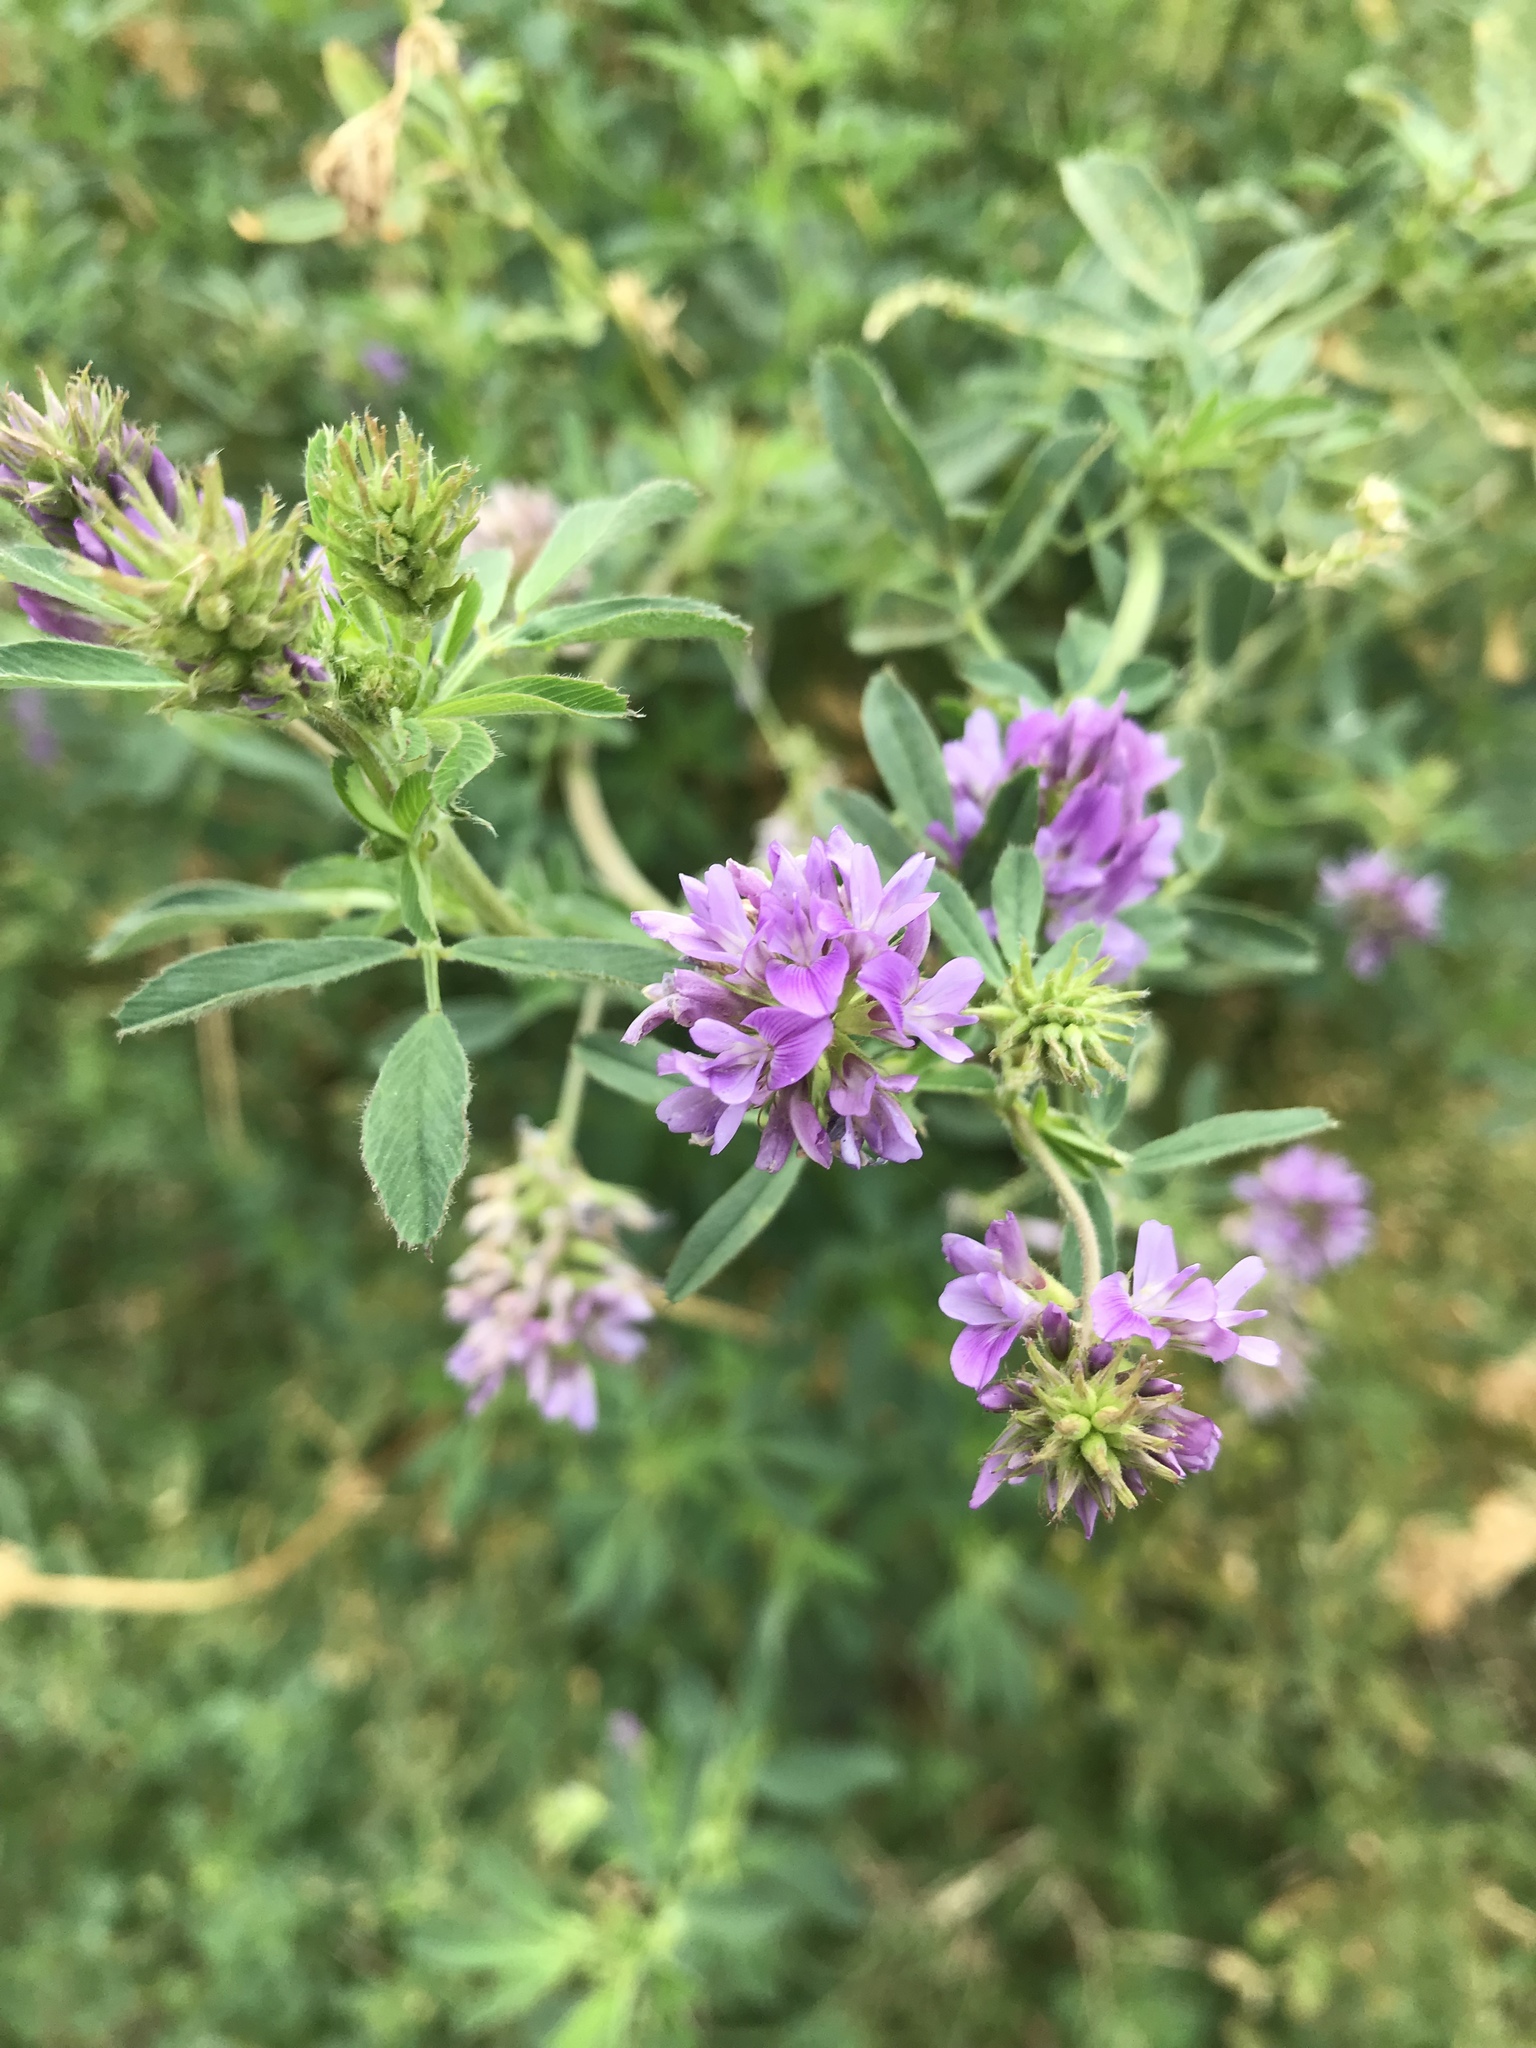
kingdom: Plantae
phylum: Tracheophyta
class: Magnoliopsida
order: Fabales
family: Fabaceae
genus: Medicago
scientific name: Medicago sativa
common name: Alfalfa
